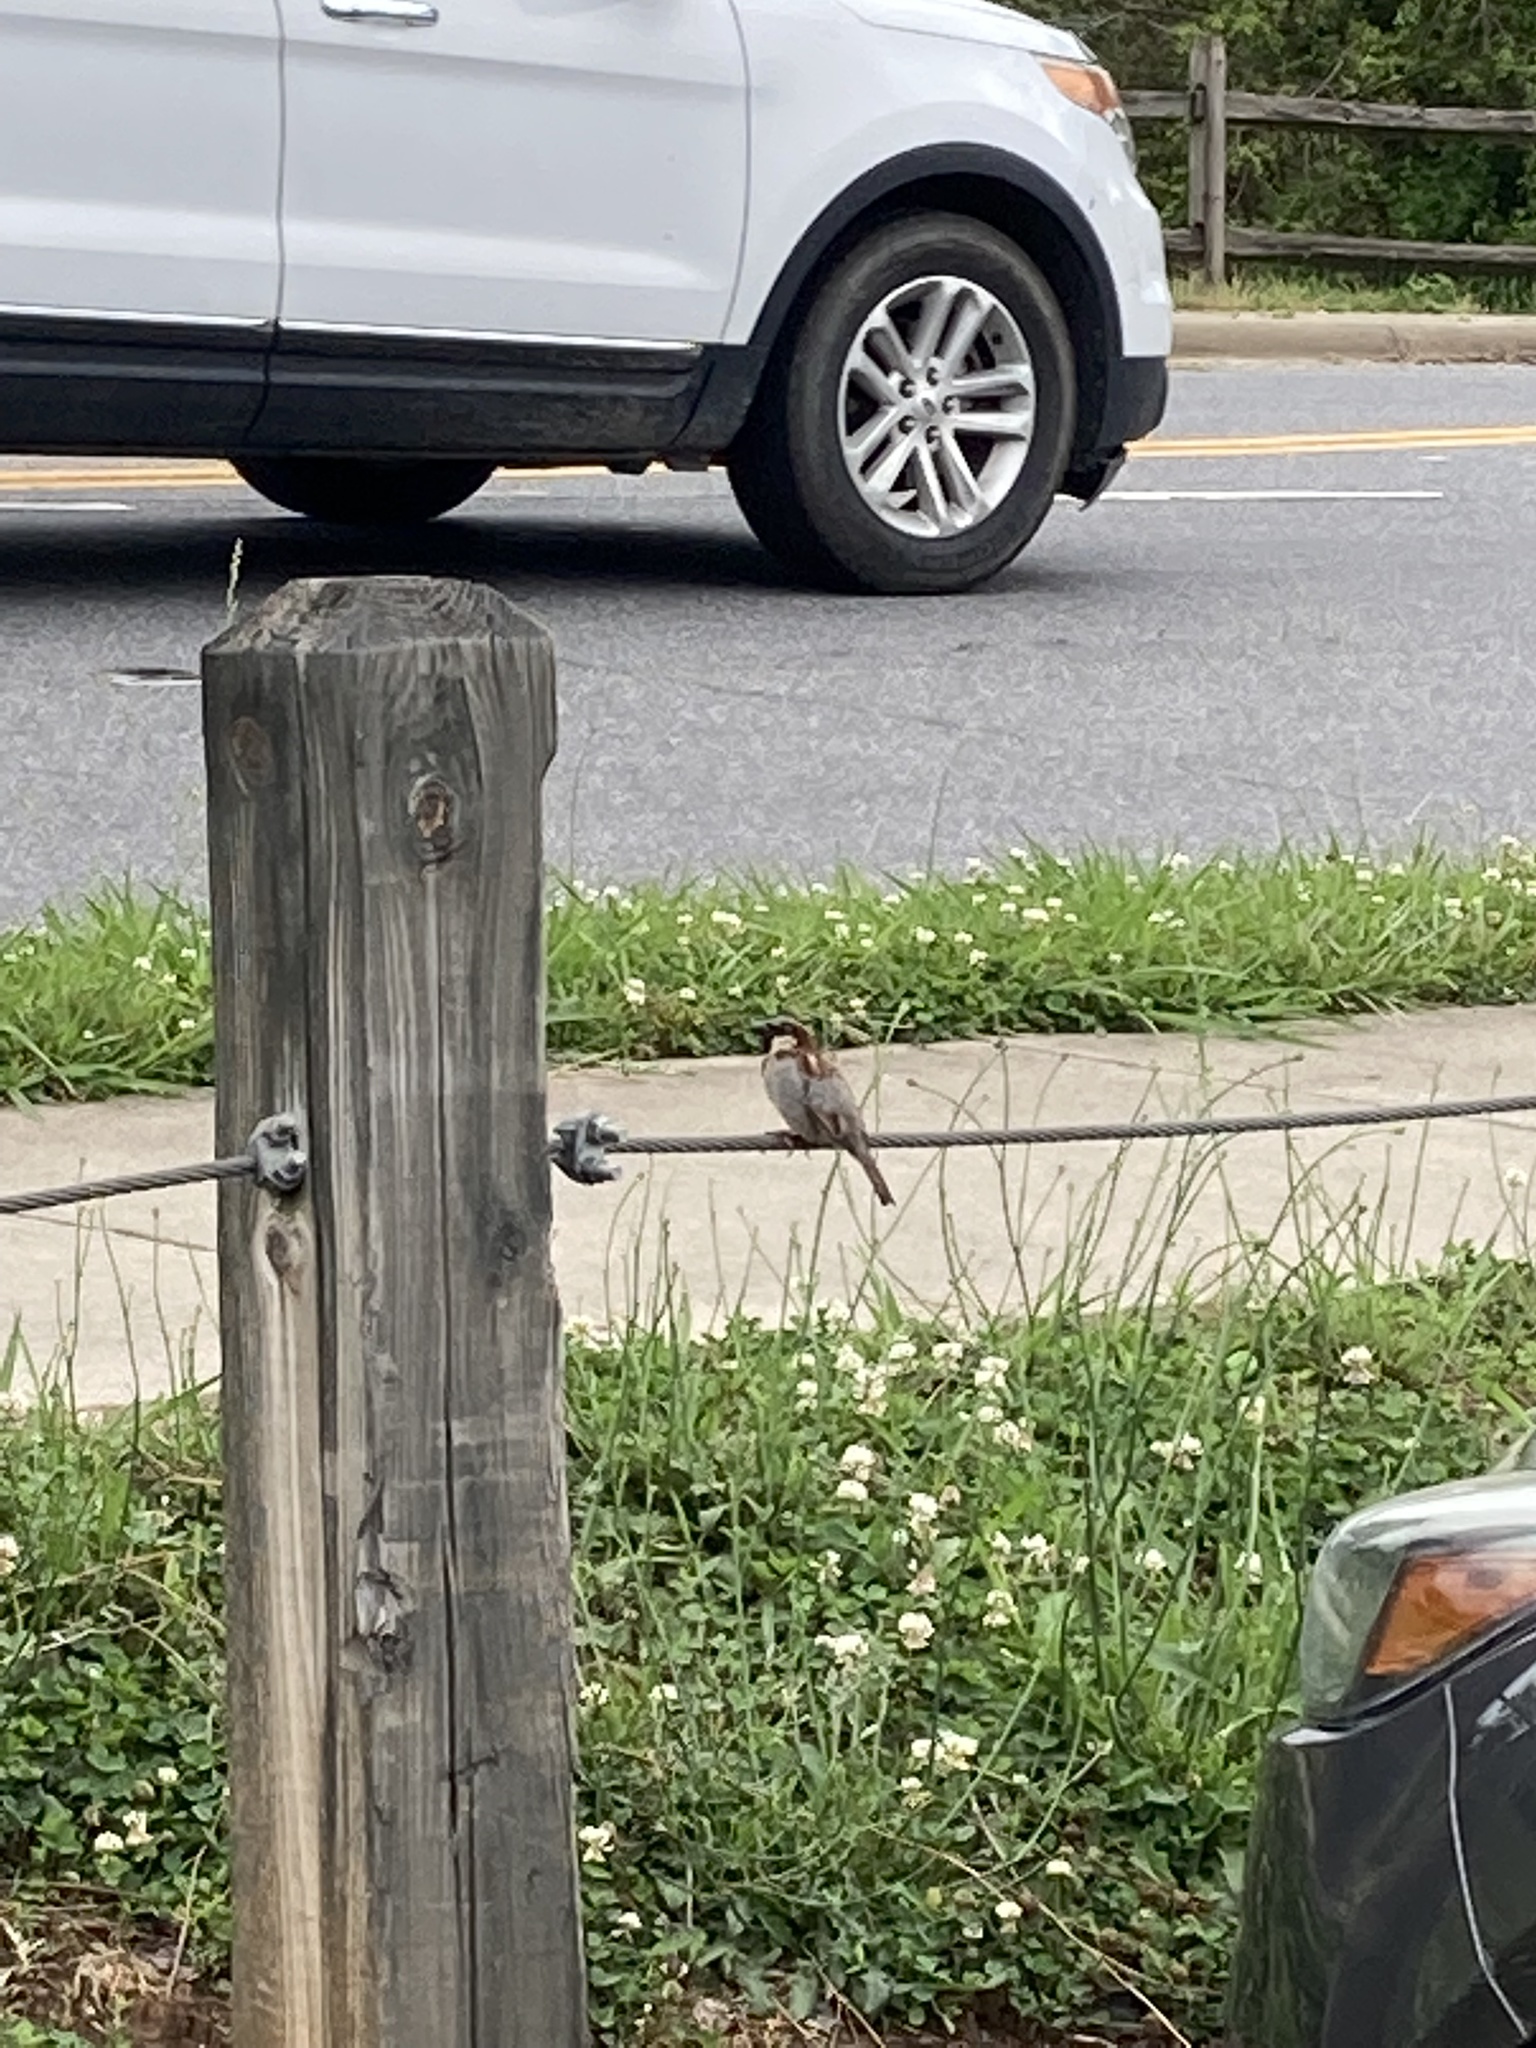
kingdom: Animalia
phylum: Chordata
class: Aves
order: Passeriformes
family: Passeridae
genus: Passer
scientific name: Passer domesticus
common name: House sparrow
